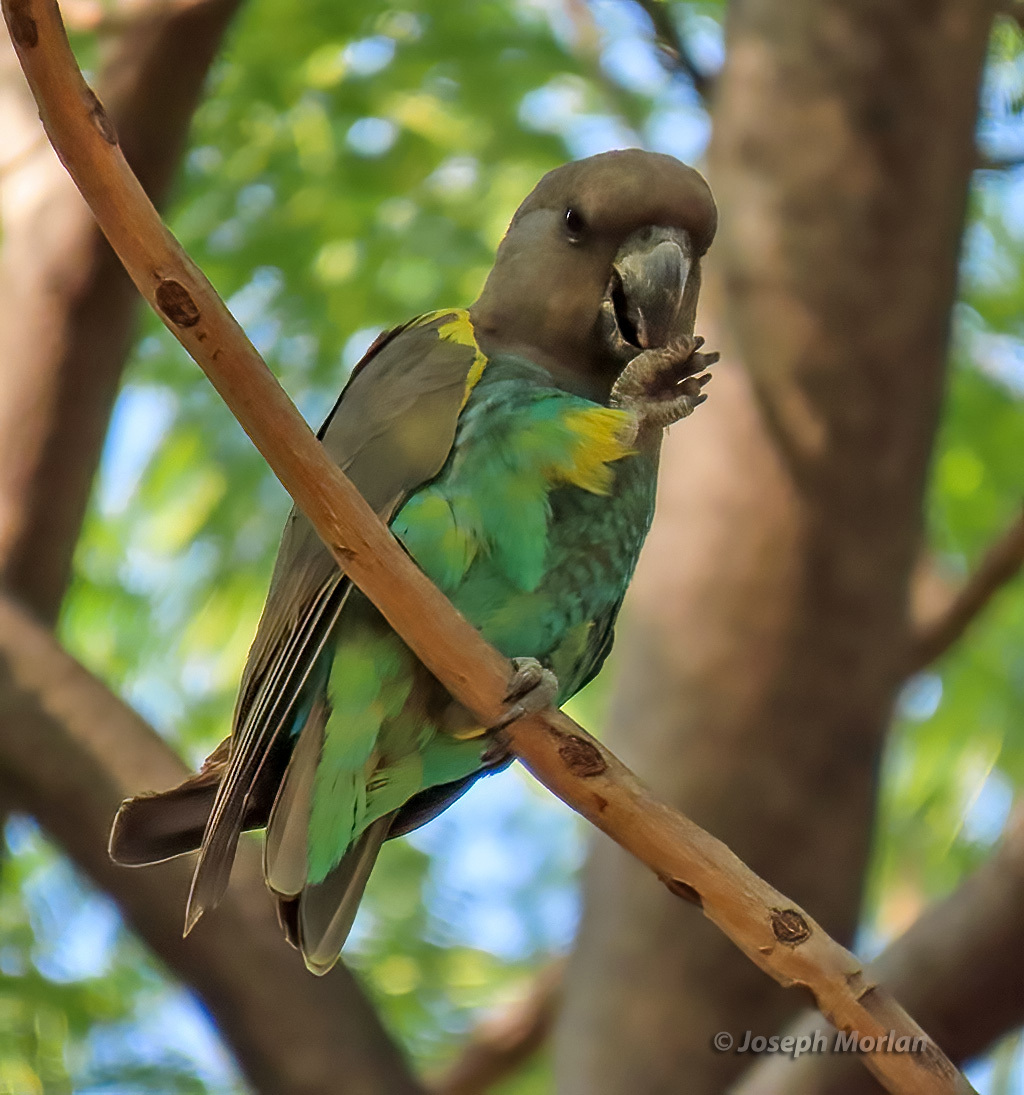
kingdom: Animalia
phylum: Chordata
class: Aves
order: Psittaciformes
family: Psittacidae
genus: Poicephalus
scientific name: Poicephalus meyeri
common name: Meyer's parrot
